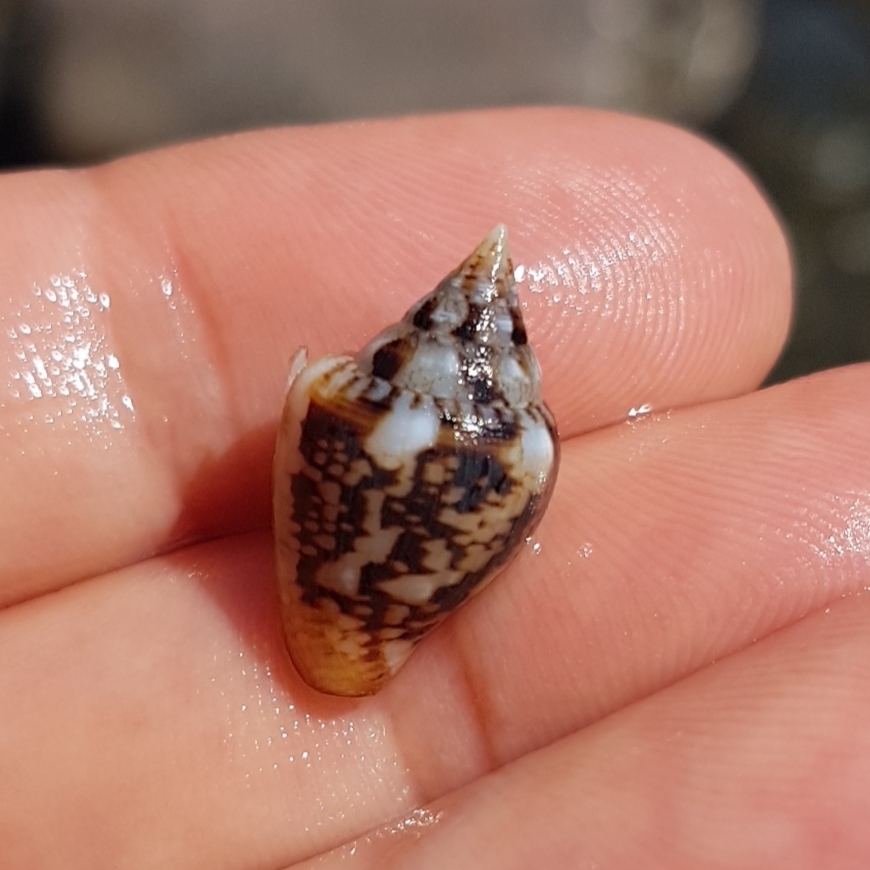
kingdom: Animalia
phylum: Mollusca
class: Gastropoda
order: Neogastropoda
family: Columbellidae
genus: Columbella
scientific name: Columbella rustica
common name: Rustic dove shell
